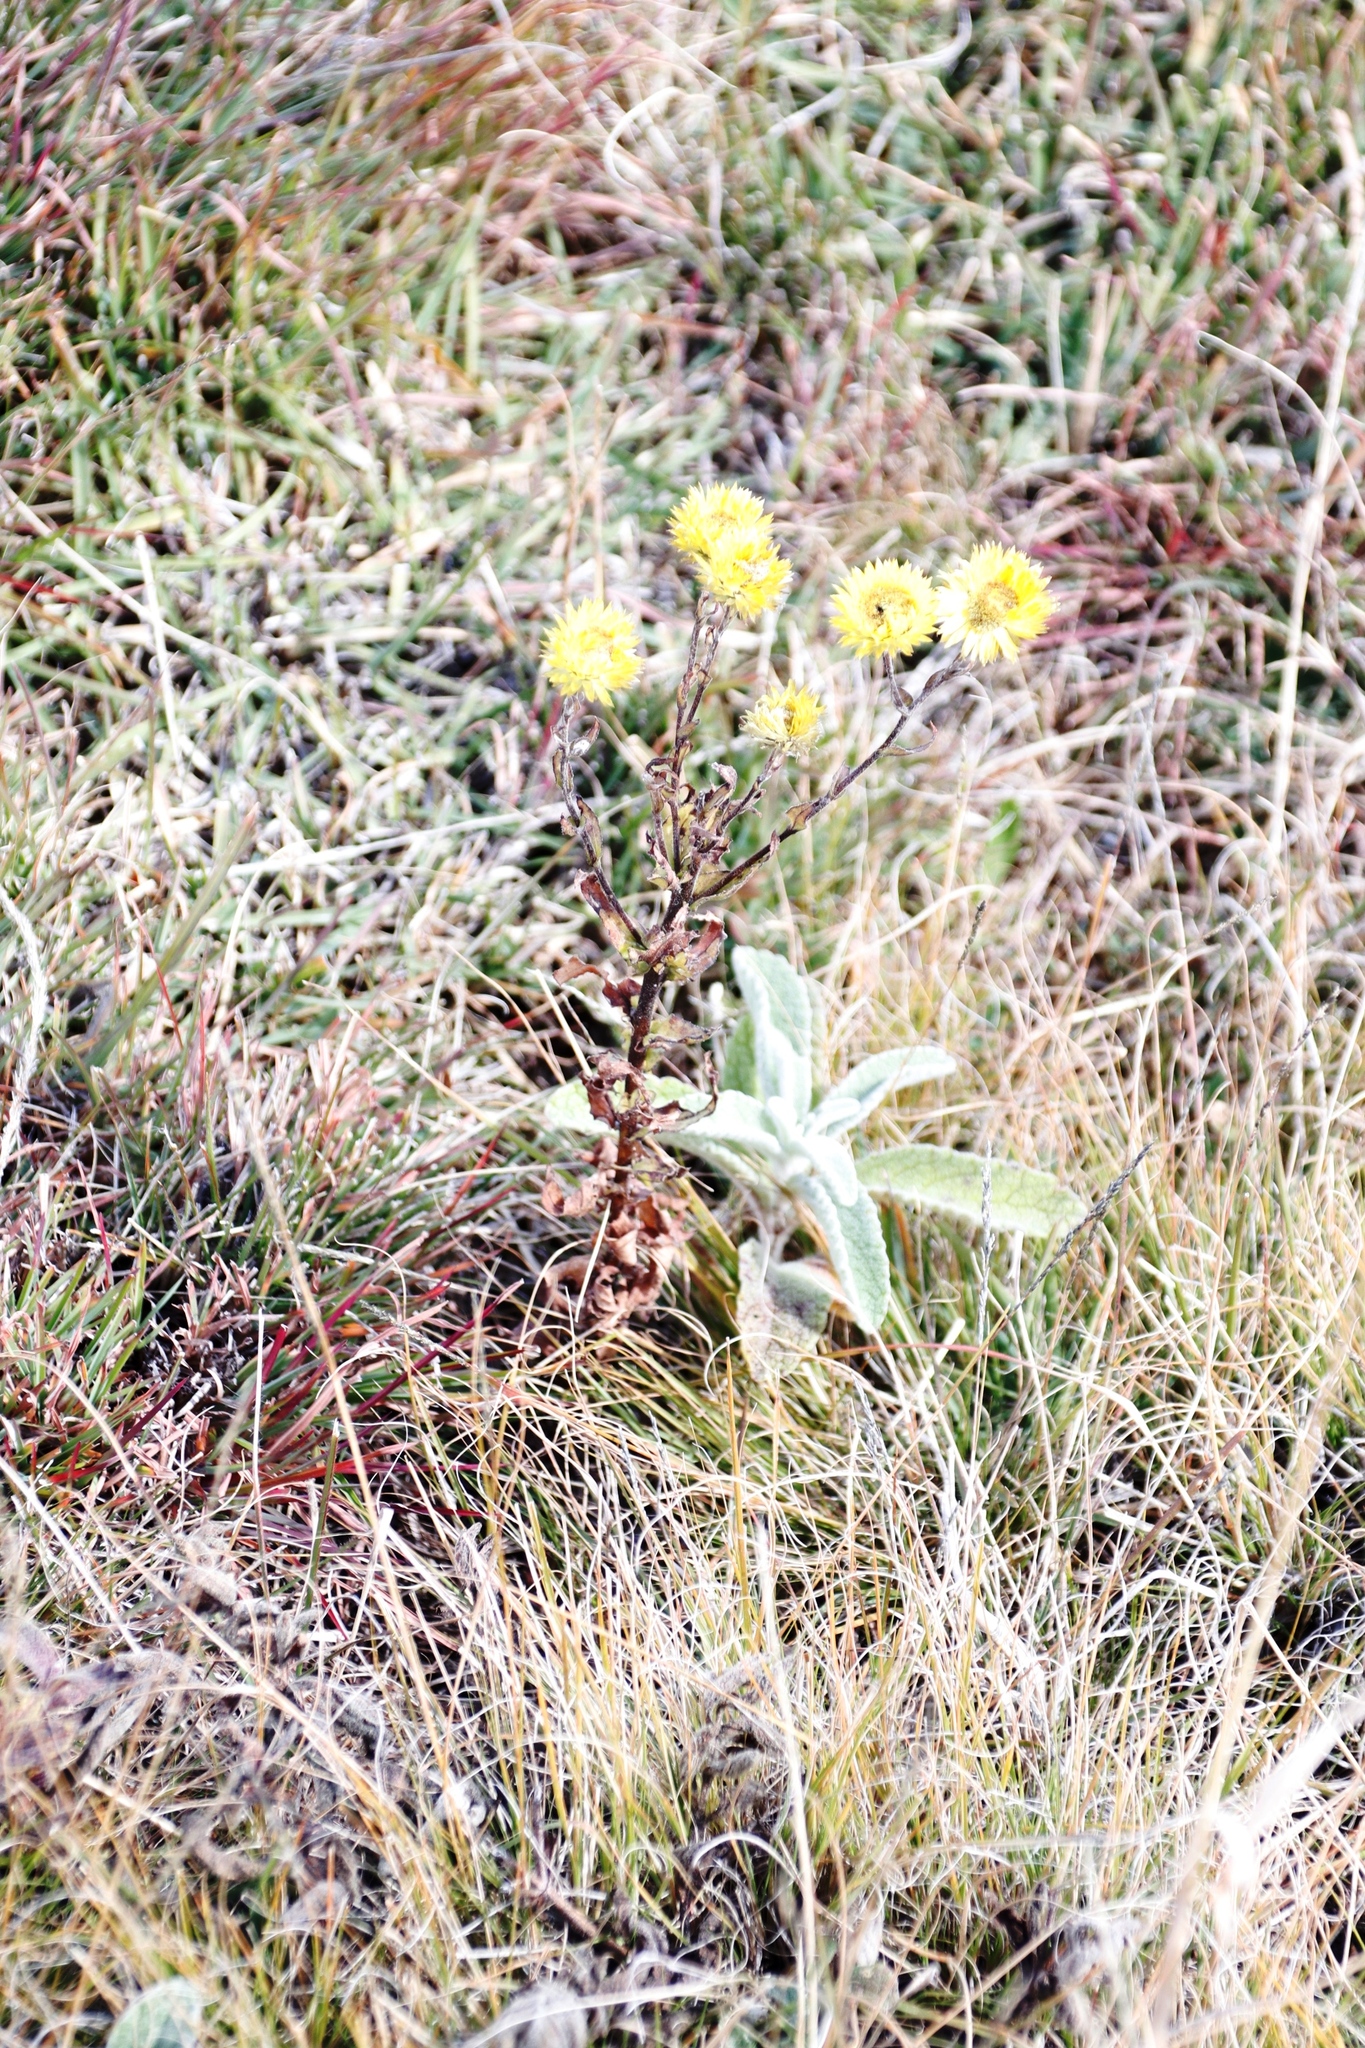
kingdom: Plantae
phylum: Tracheophyta
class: Magnoliopsida
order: Asterales
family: Asteraceae
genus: Helichrysum
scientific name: Helichrysum cooperi
